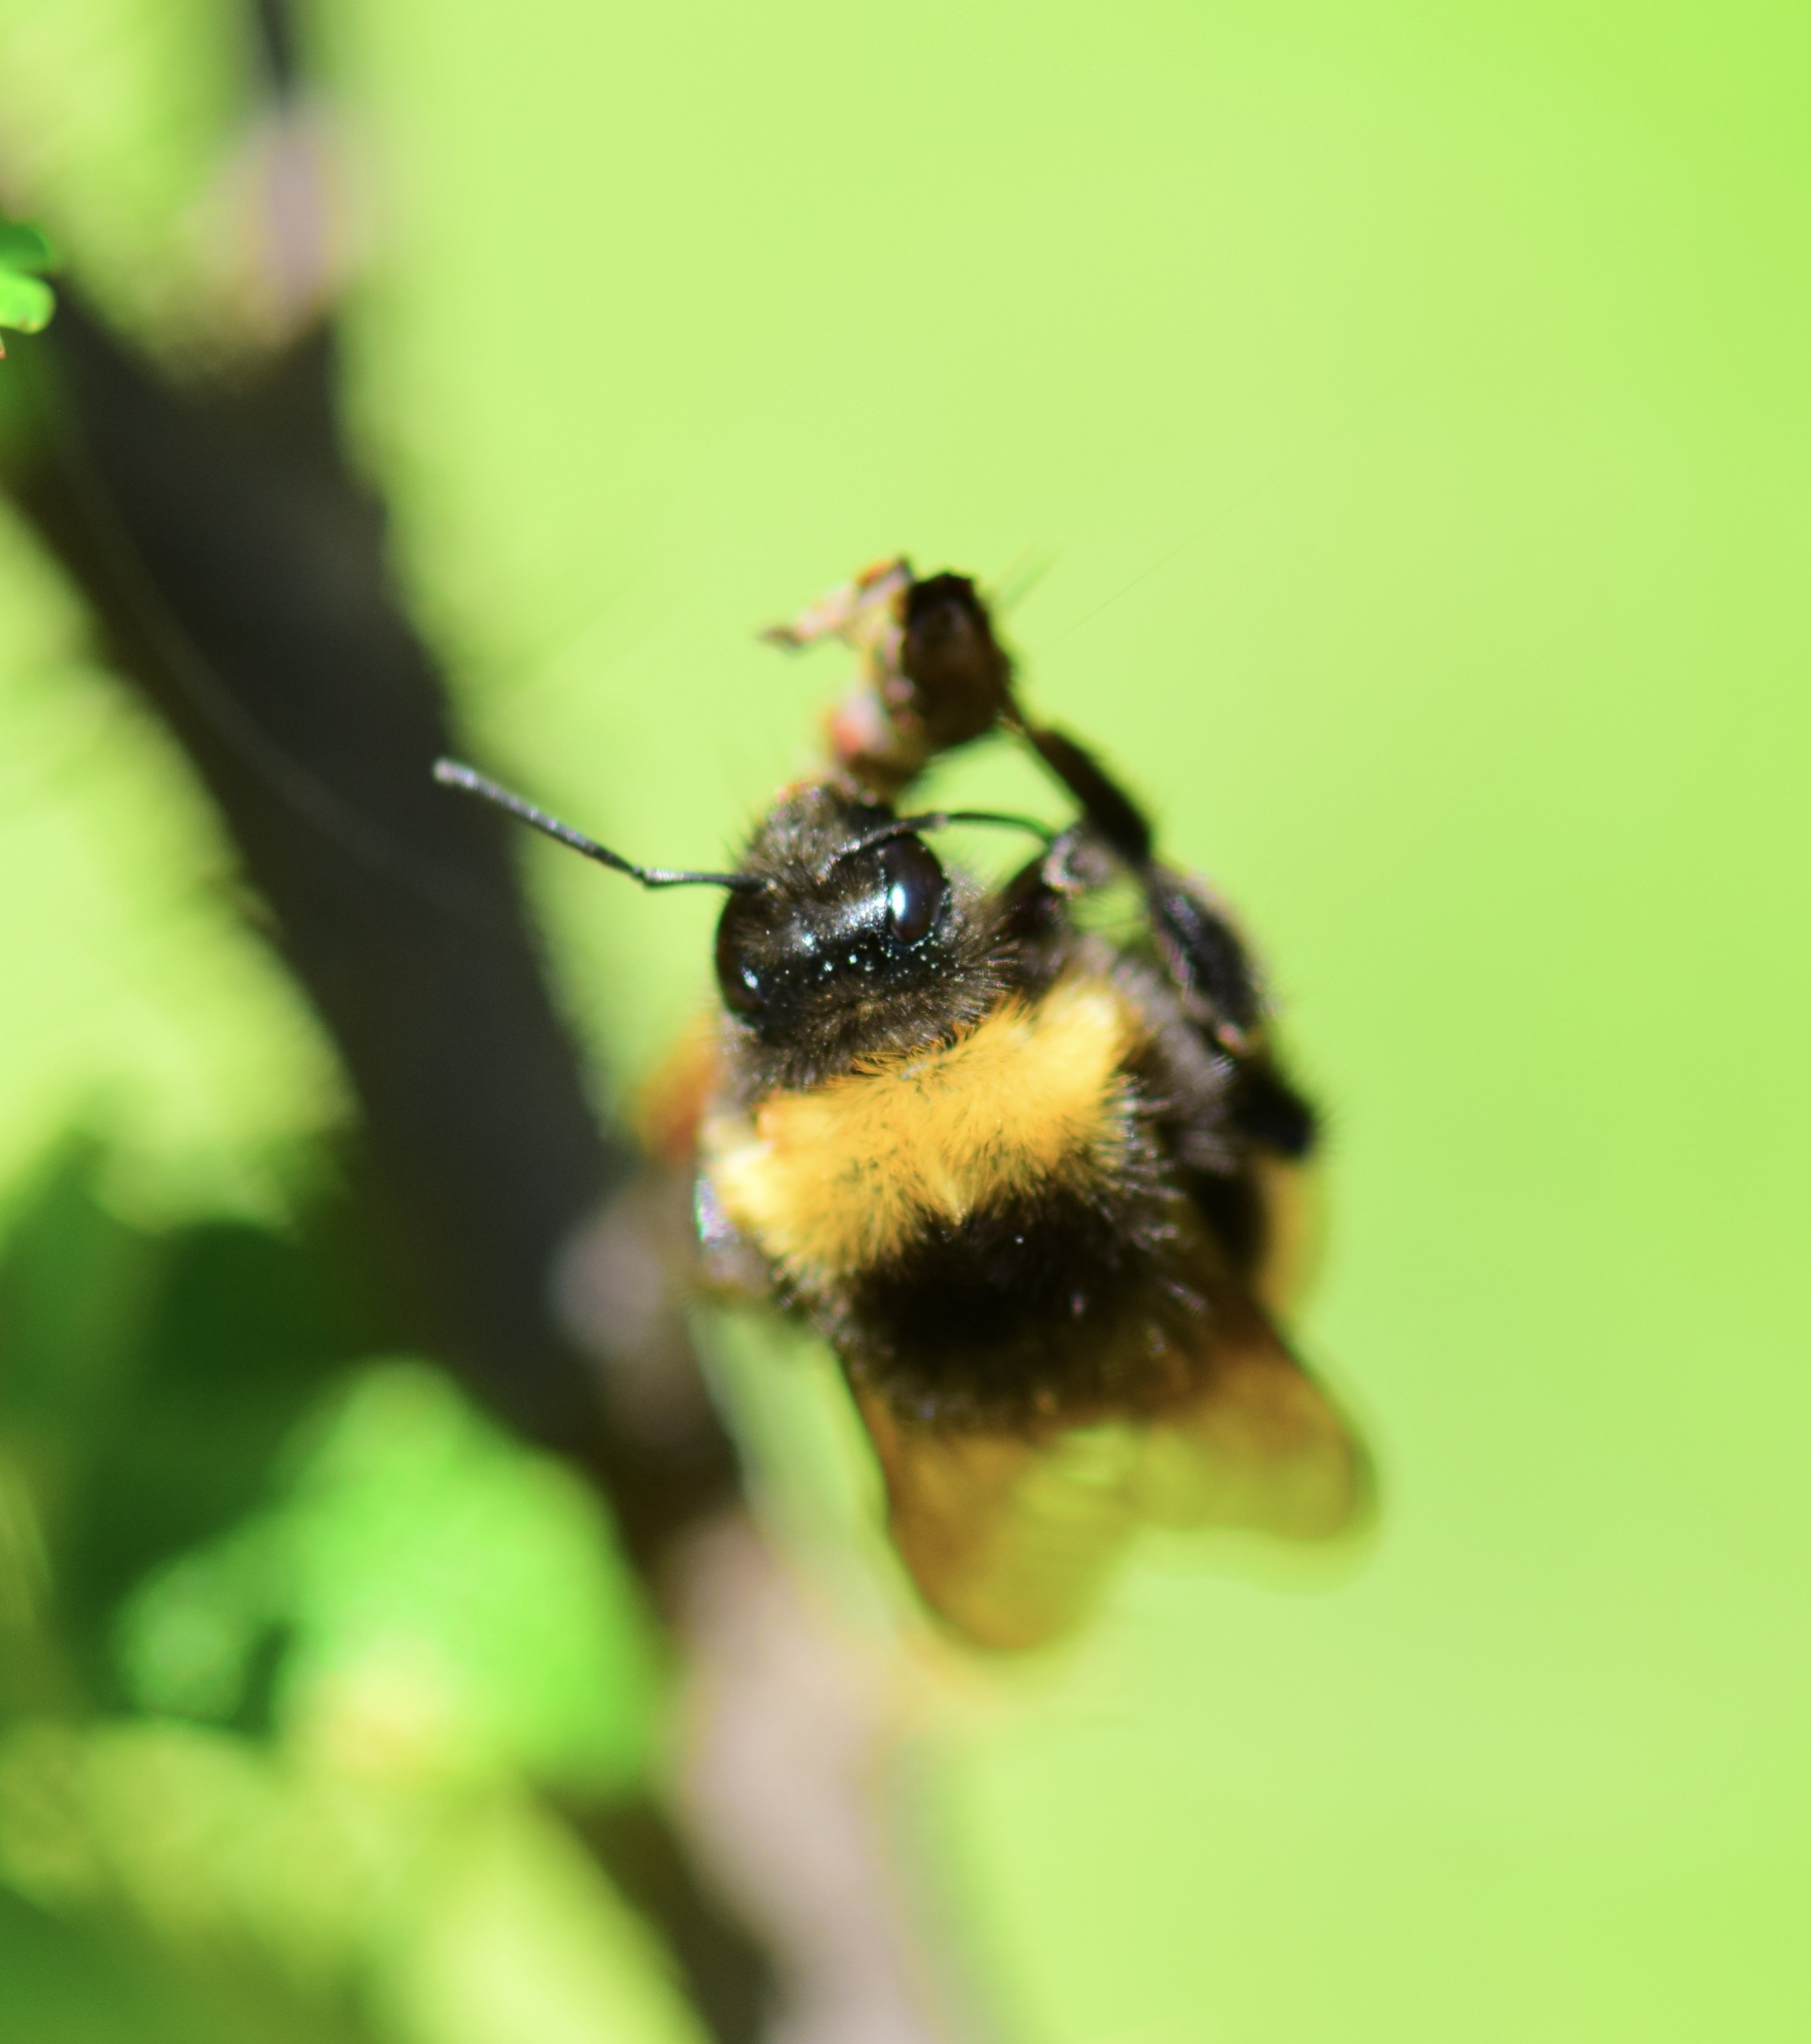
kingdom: Animalia
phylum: Arthropoda
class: Insecta
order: Hymenoptera
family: Apidae
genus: Bombus
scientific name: Bombus terricola
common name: Yellow-banded bumble bee
